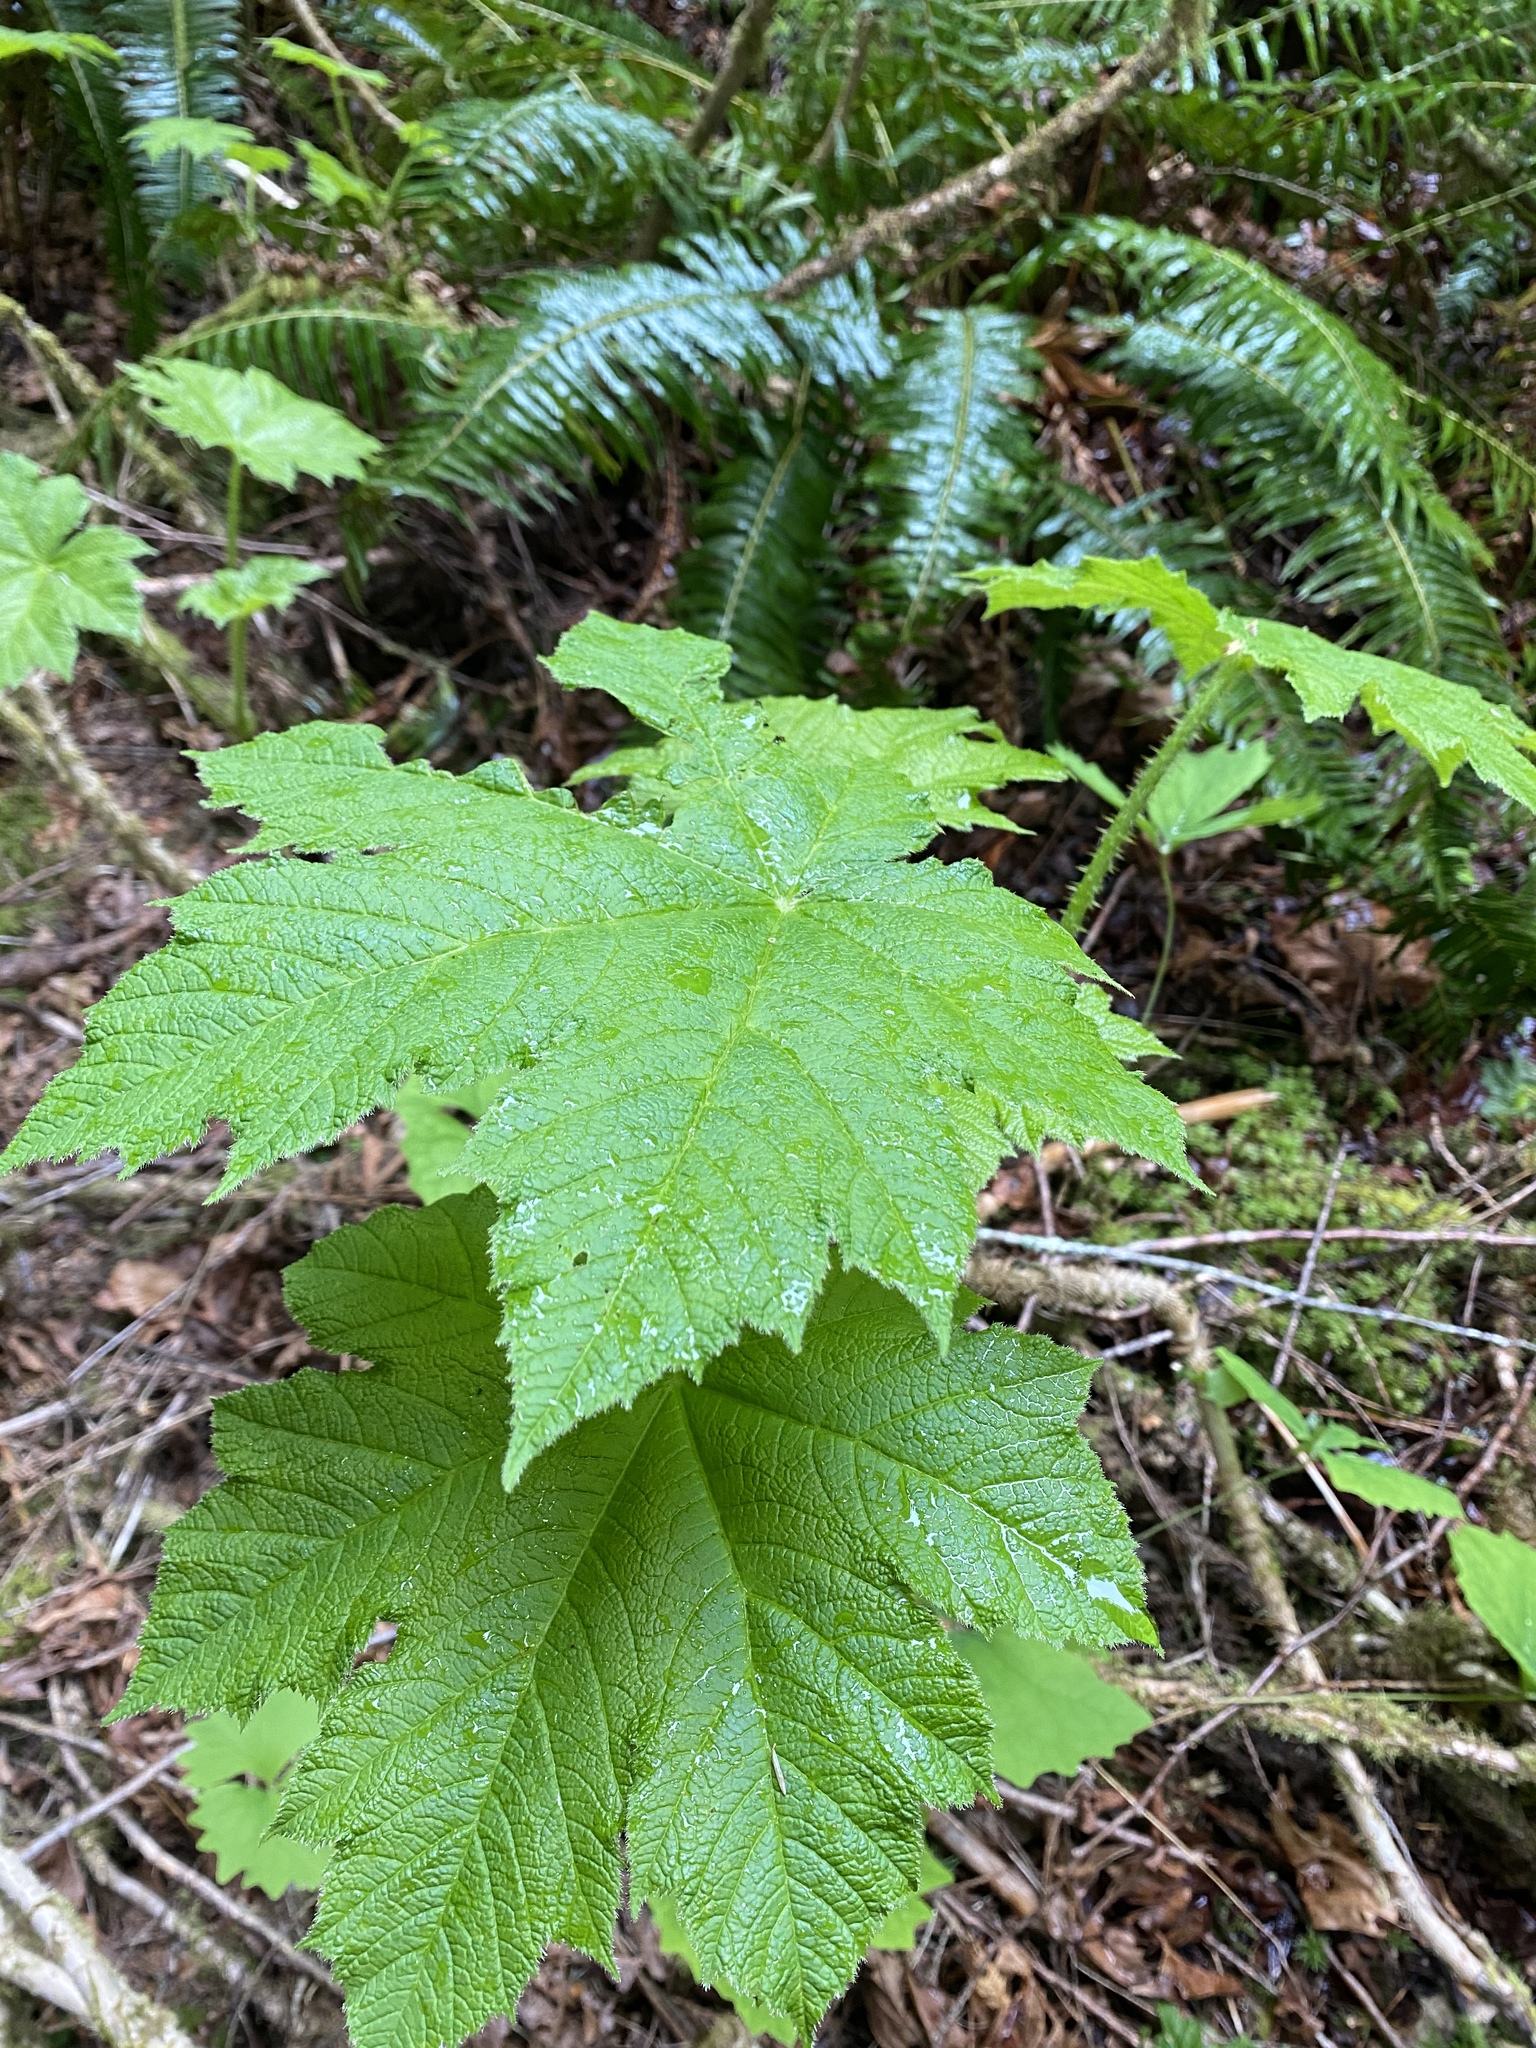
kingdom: Plantae
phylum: Tracheophyta
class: Magnoliopsida
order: Apiales
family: Araliaceae
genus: Oplopanax
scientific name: Oplopanax horridus
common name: Devil's walking-stick
